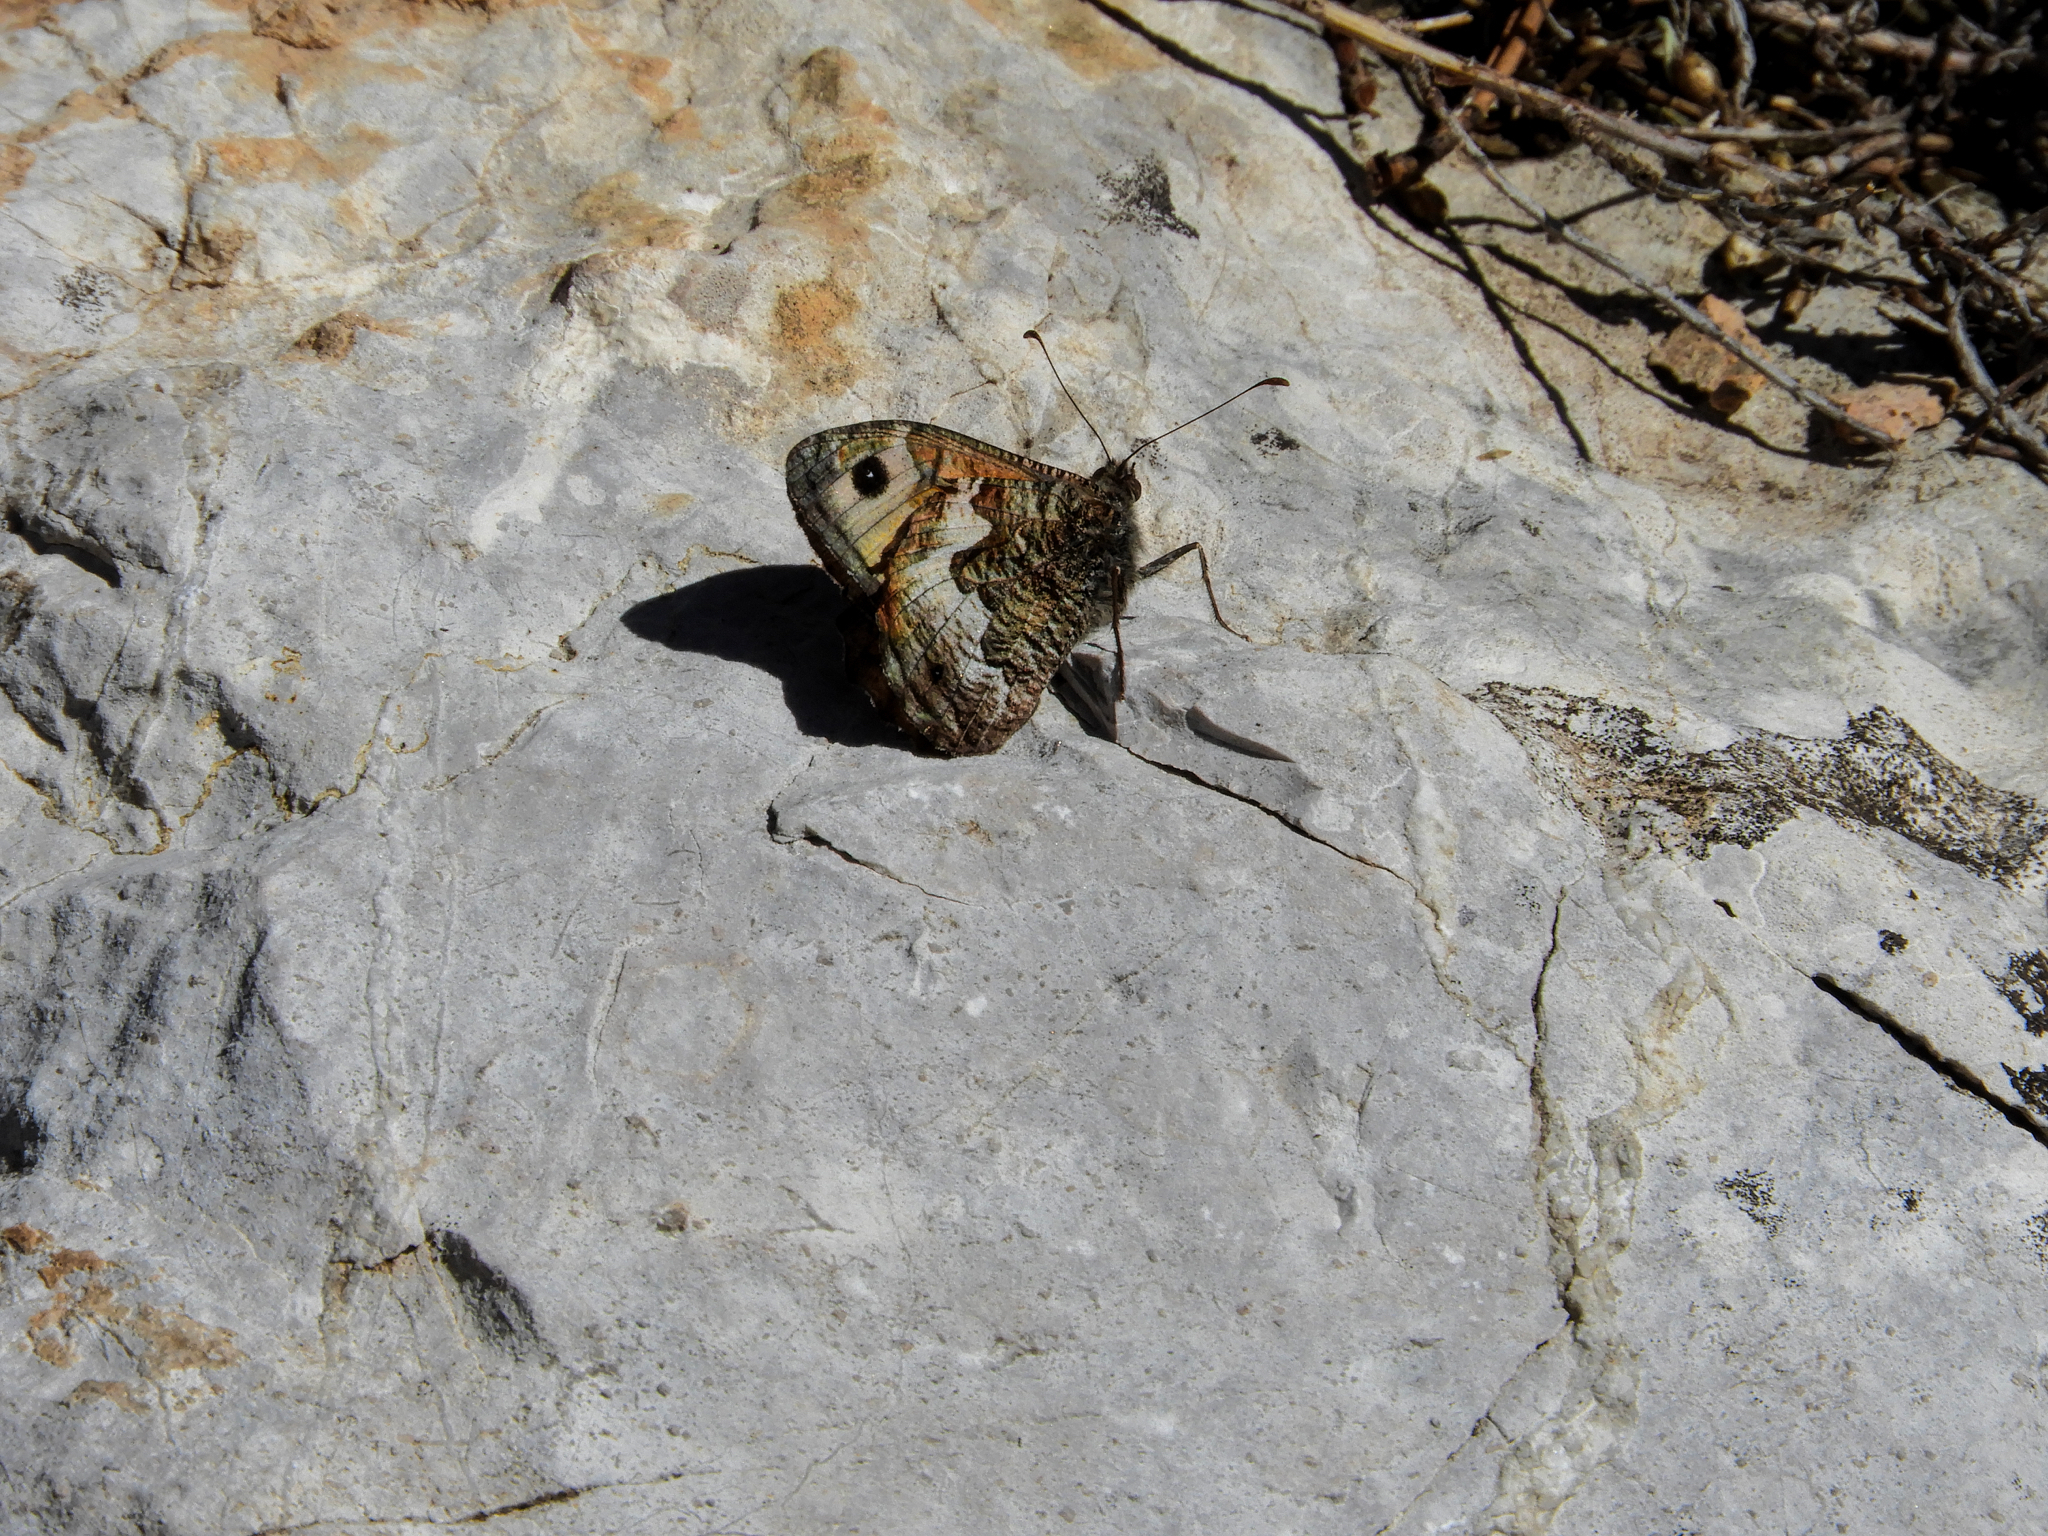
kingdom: Animalia
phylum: Arthropoda
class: Insecta
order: Lepidoptera
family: Nymphalidae
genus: Hipparchia
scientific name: Hipparchia semele
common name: Grayling
